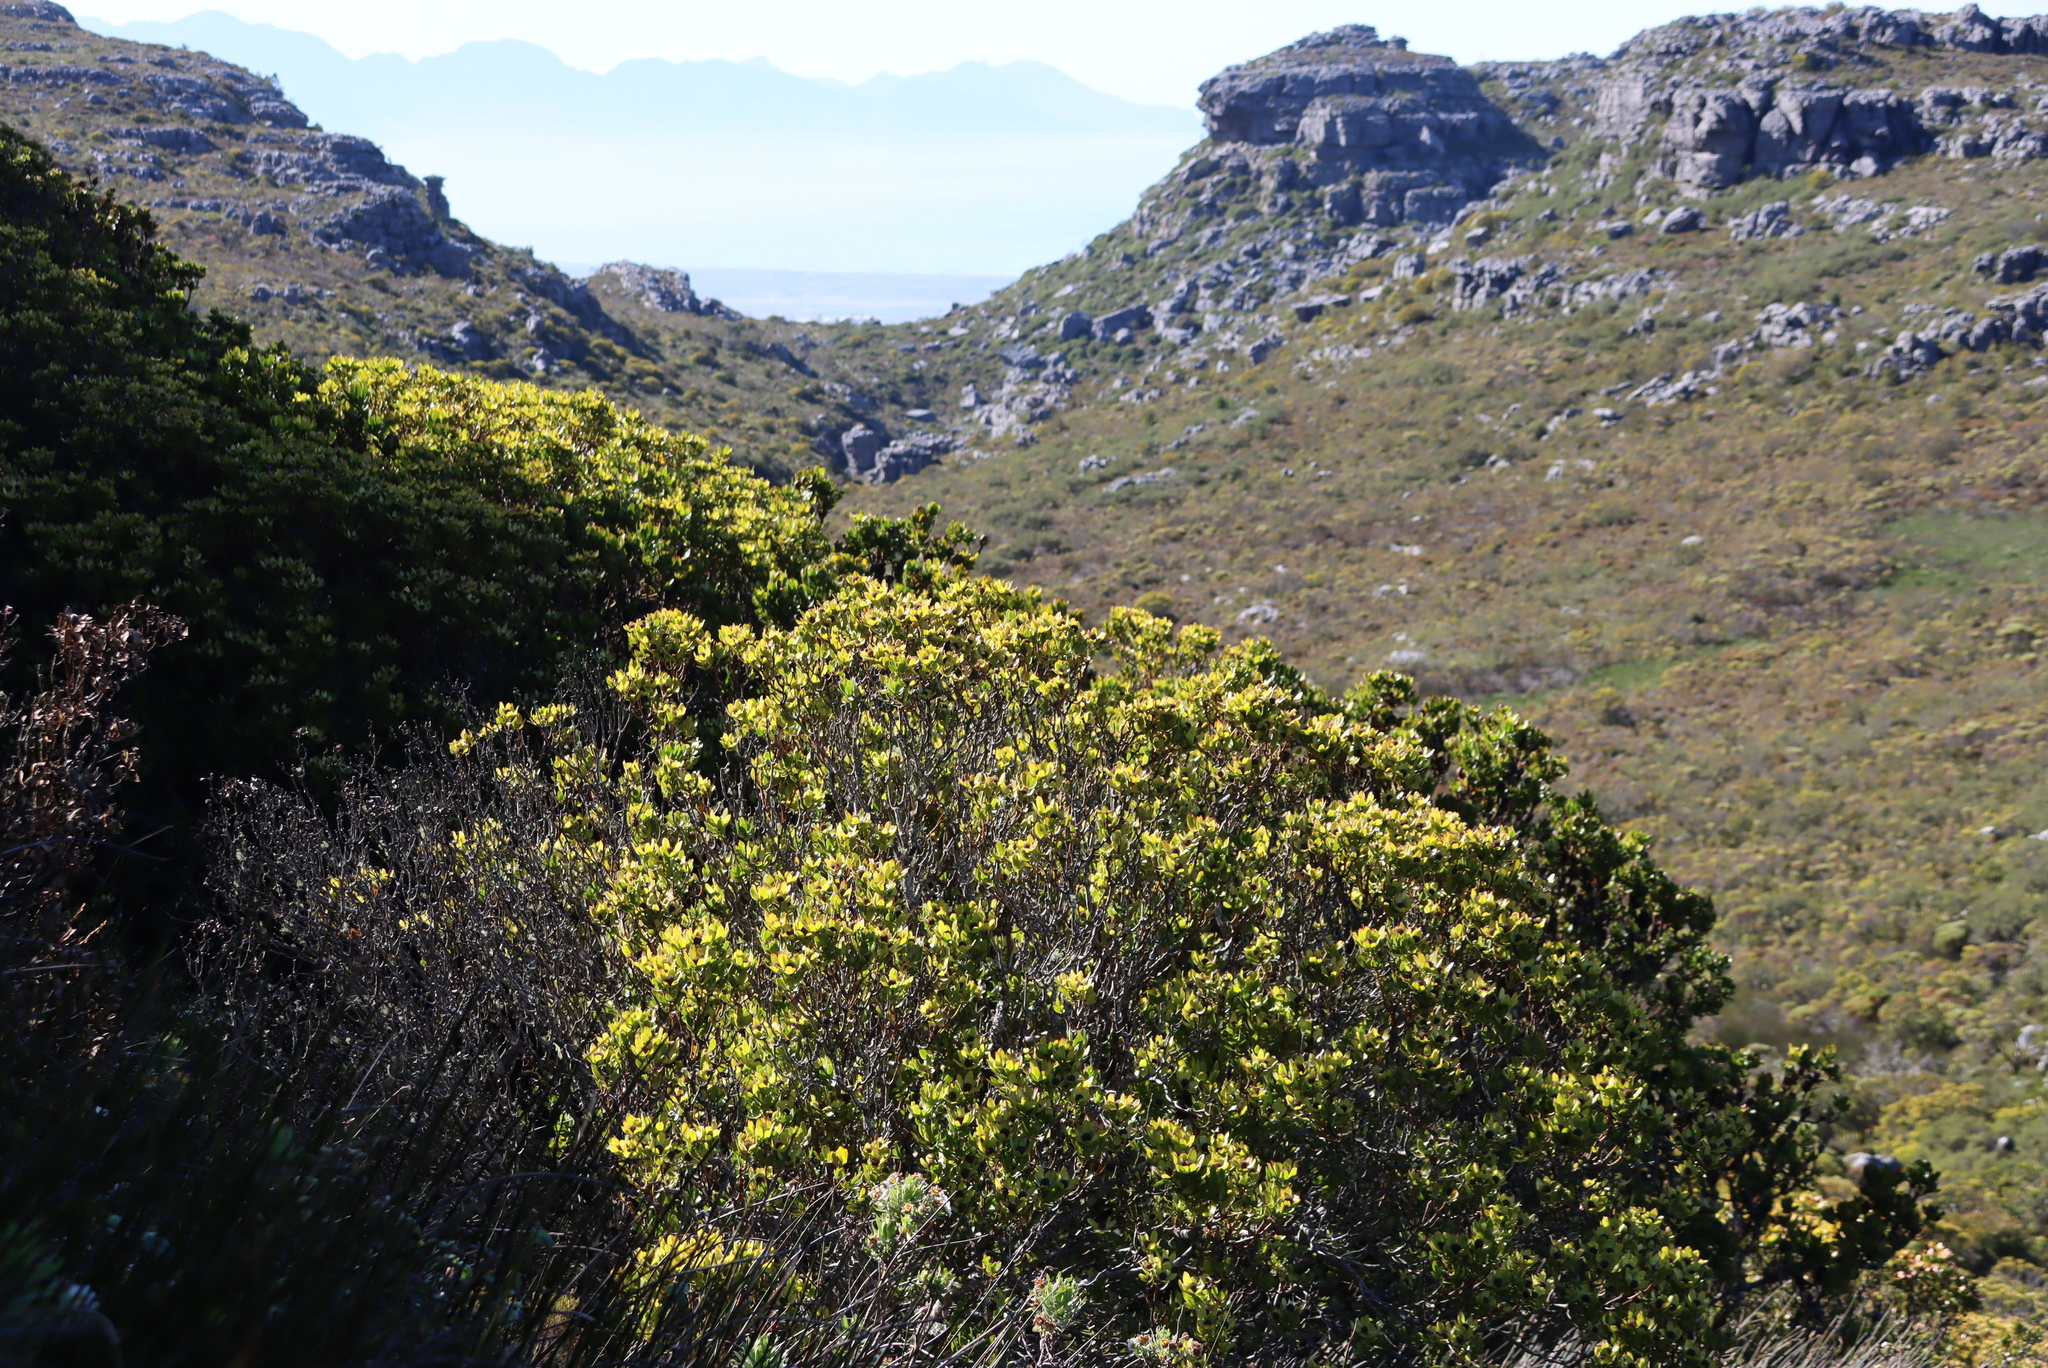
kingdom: Plantae
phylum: Tracheophyta
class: Magnoliopsida
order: Proteales
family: Proteaceae
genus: Leucadendron
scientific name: Leucadendron strobilinum
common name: Mountain rose
